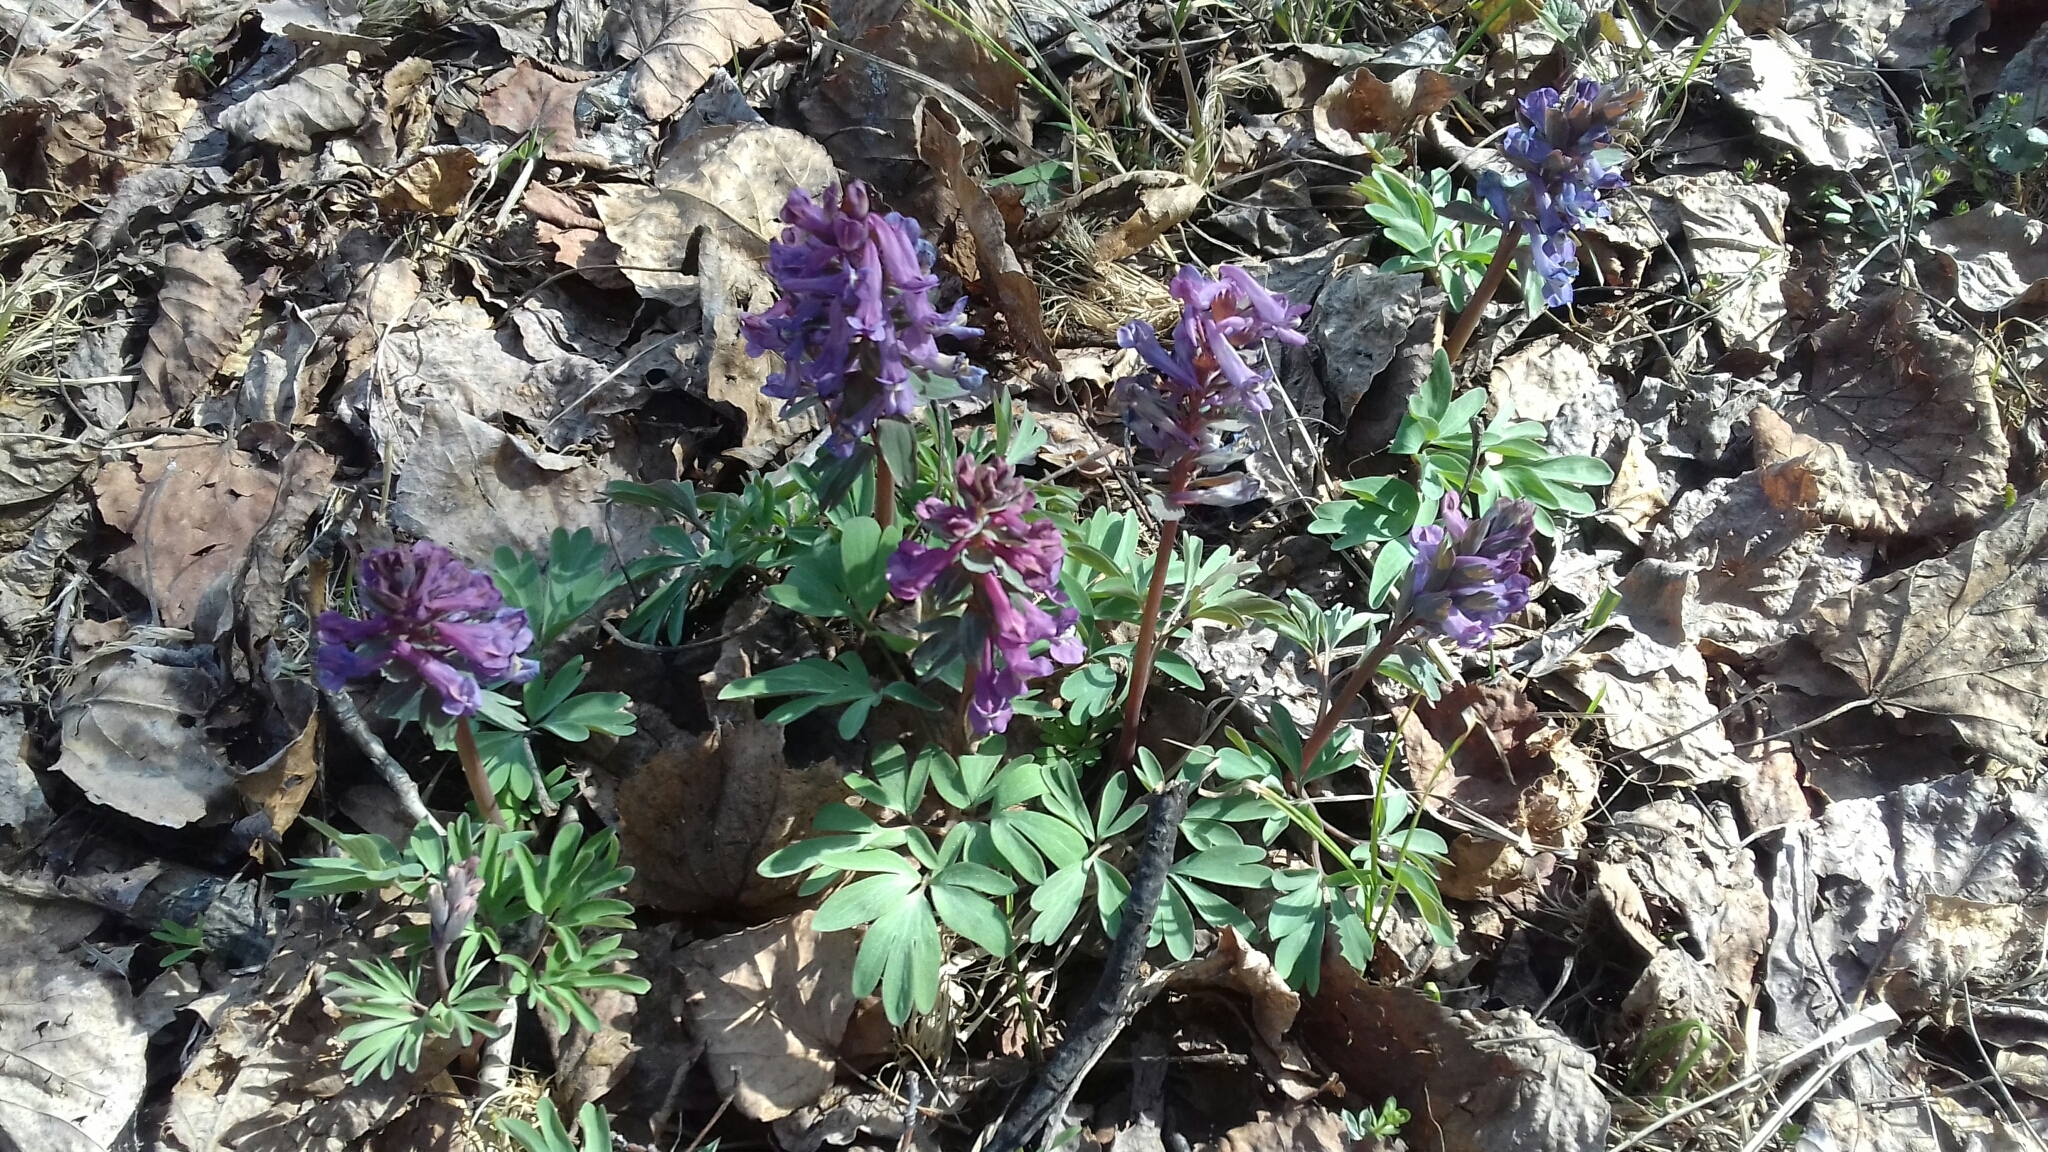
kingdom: Plantae
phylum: Tracheophyta
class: Magnoliopsida
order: Ranunculales
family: Papaveraceae
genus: Corydalis
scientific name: Corydalis solida
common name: Bird-in-a-bush
